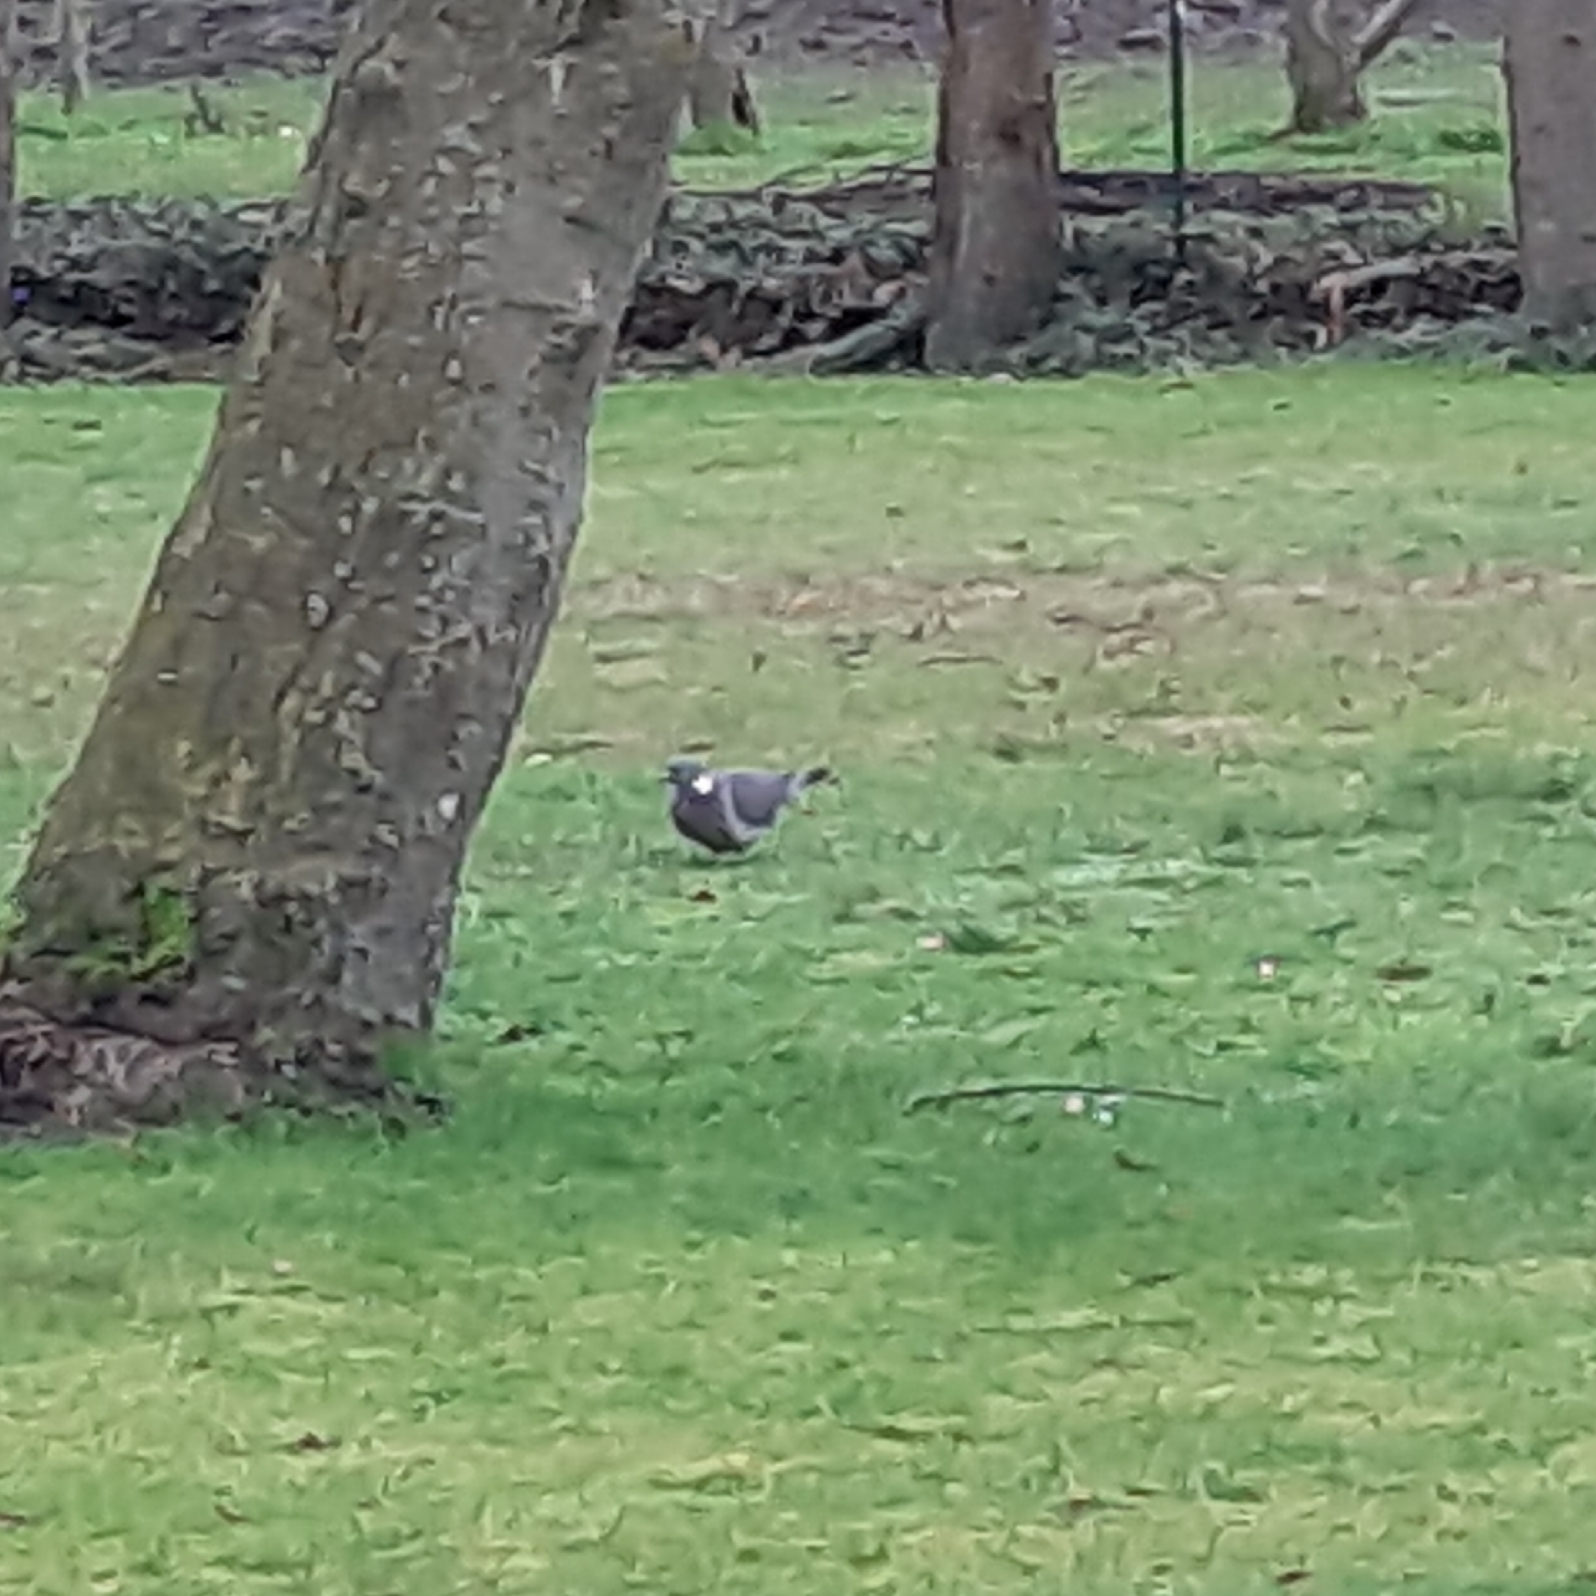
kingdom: Animalia
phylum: Chordata
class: Aves
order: Columbiformes
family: Columbidae
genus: Columba
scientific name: Columba palumbus
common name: Common wood pigeon
